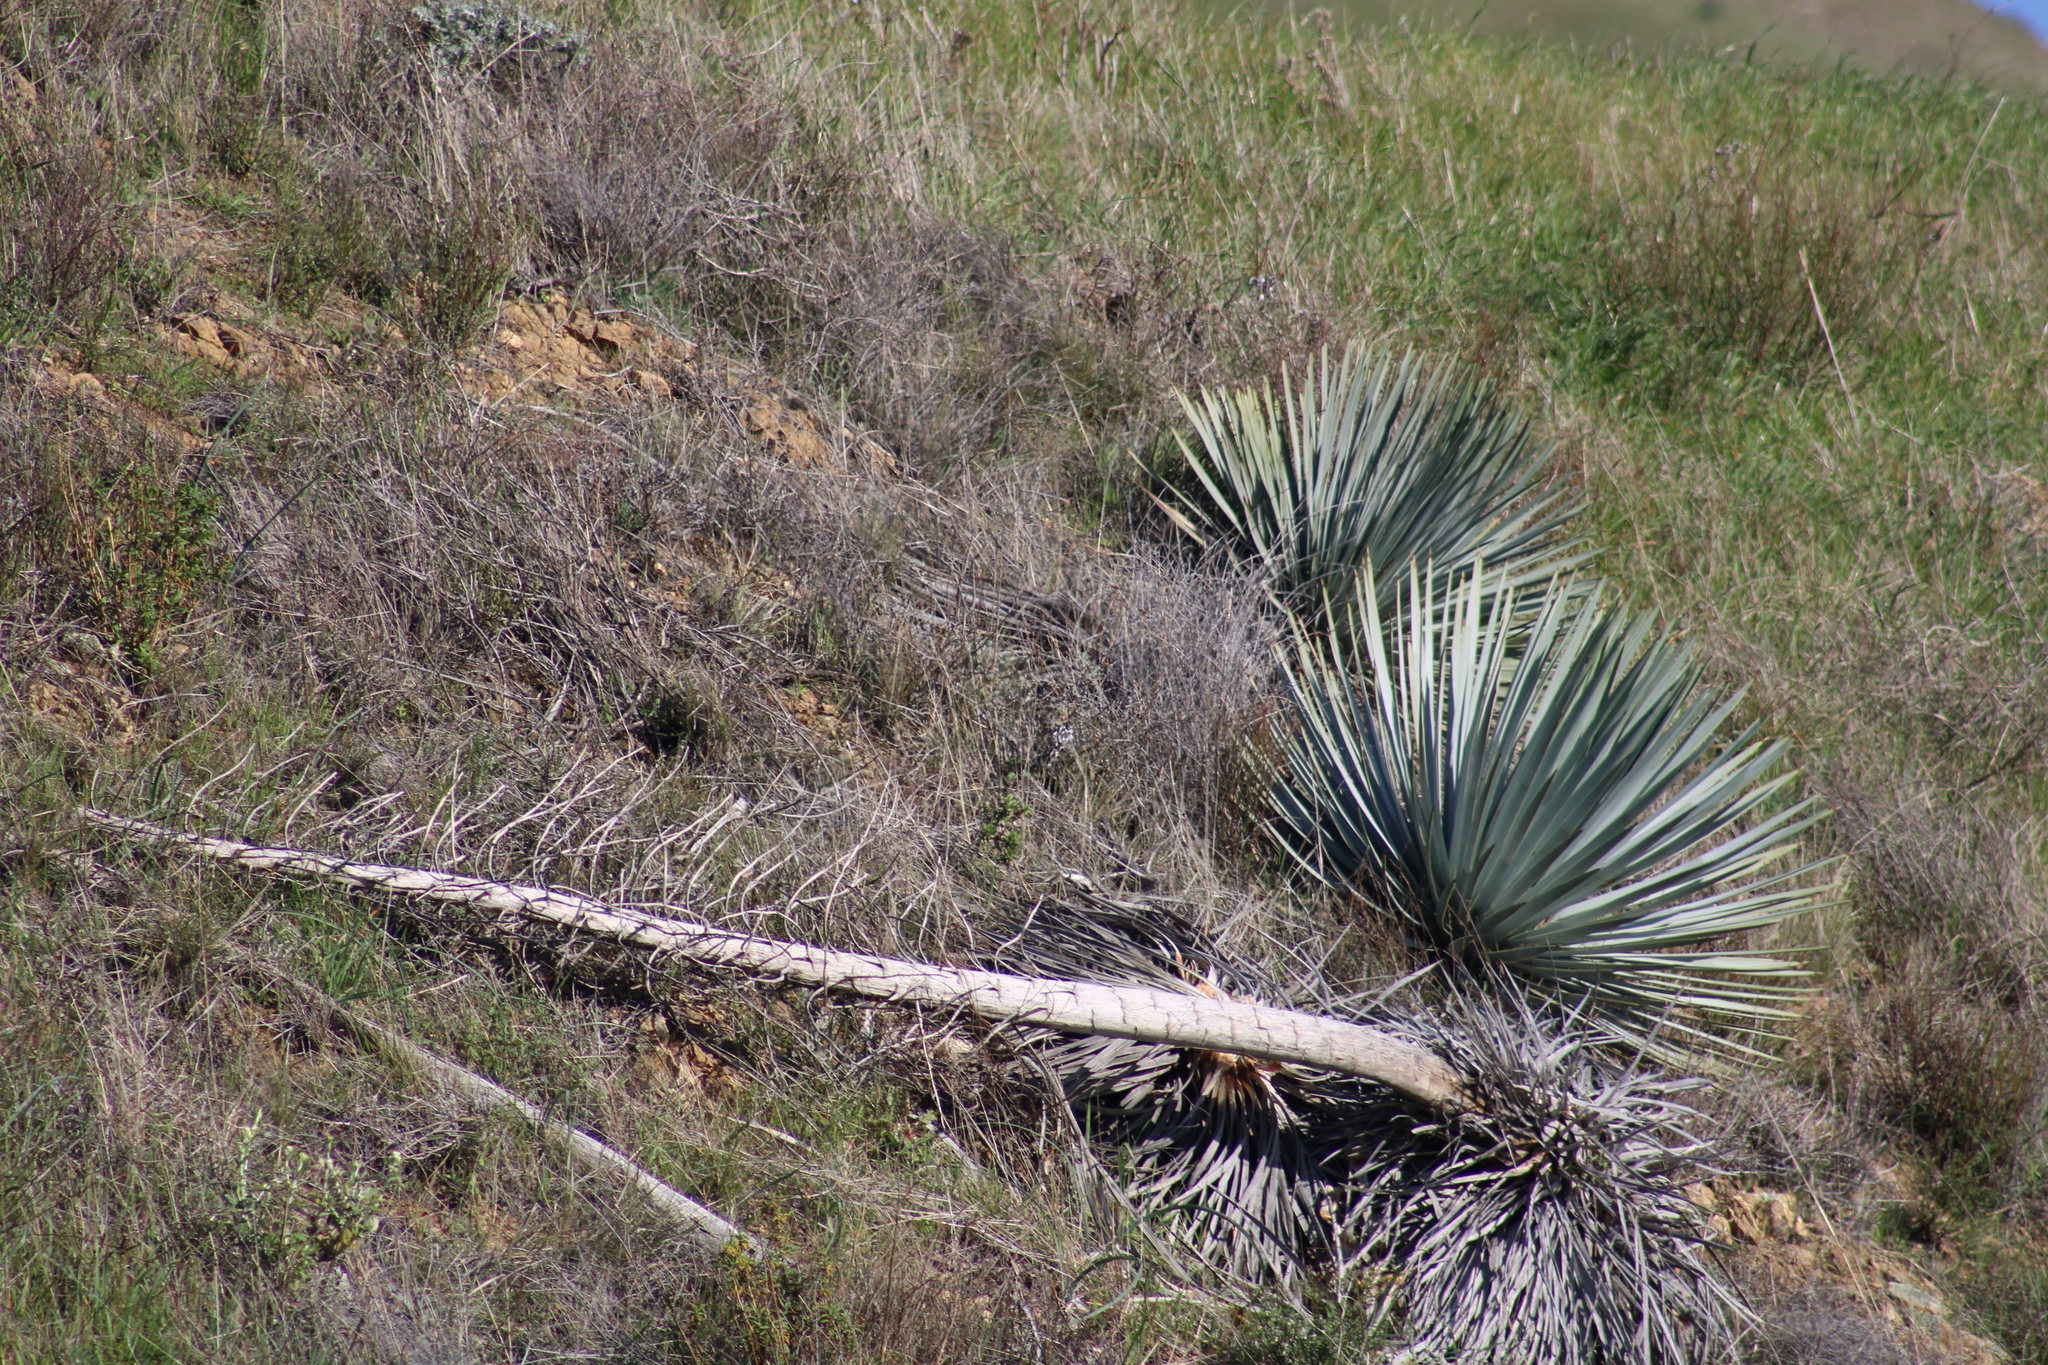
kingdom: Plantae
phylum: Tracheophyta
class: Liliopsida
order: Asparagales
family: Asparagaceae
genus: Hesperoyucca
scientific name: Hesperoyucca whipplei
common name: Our lord's-candle
